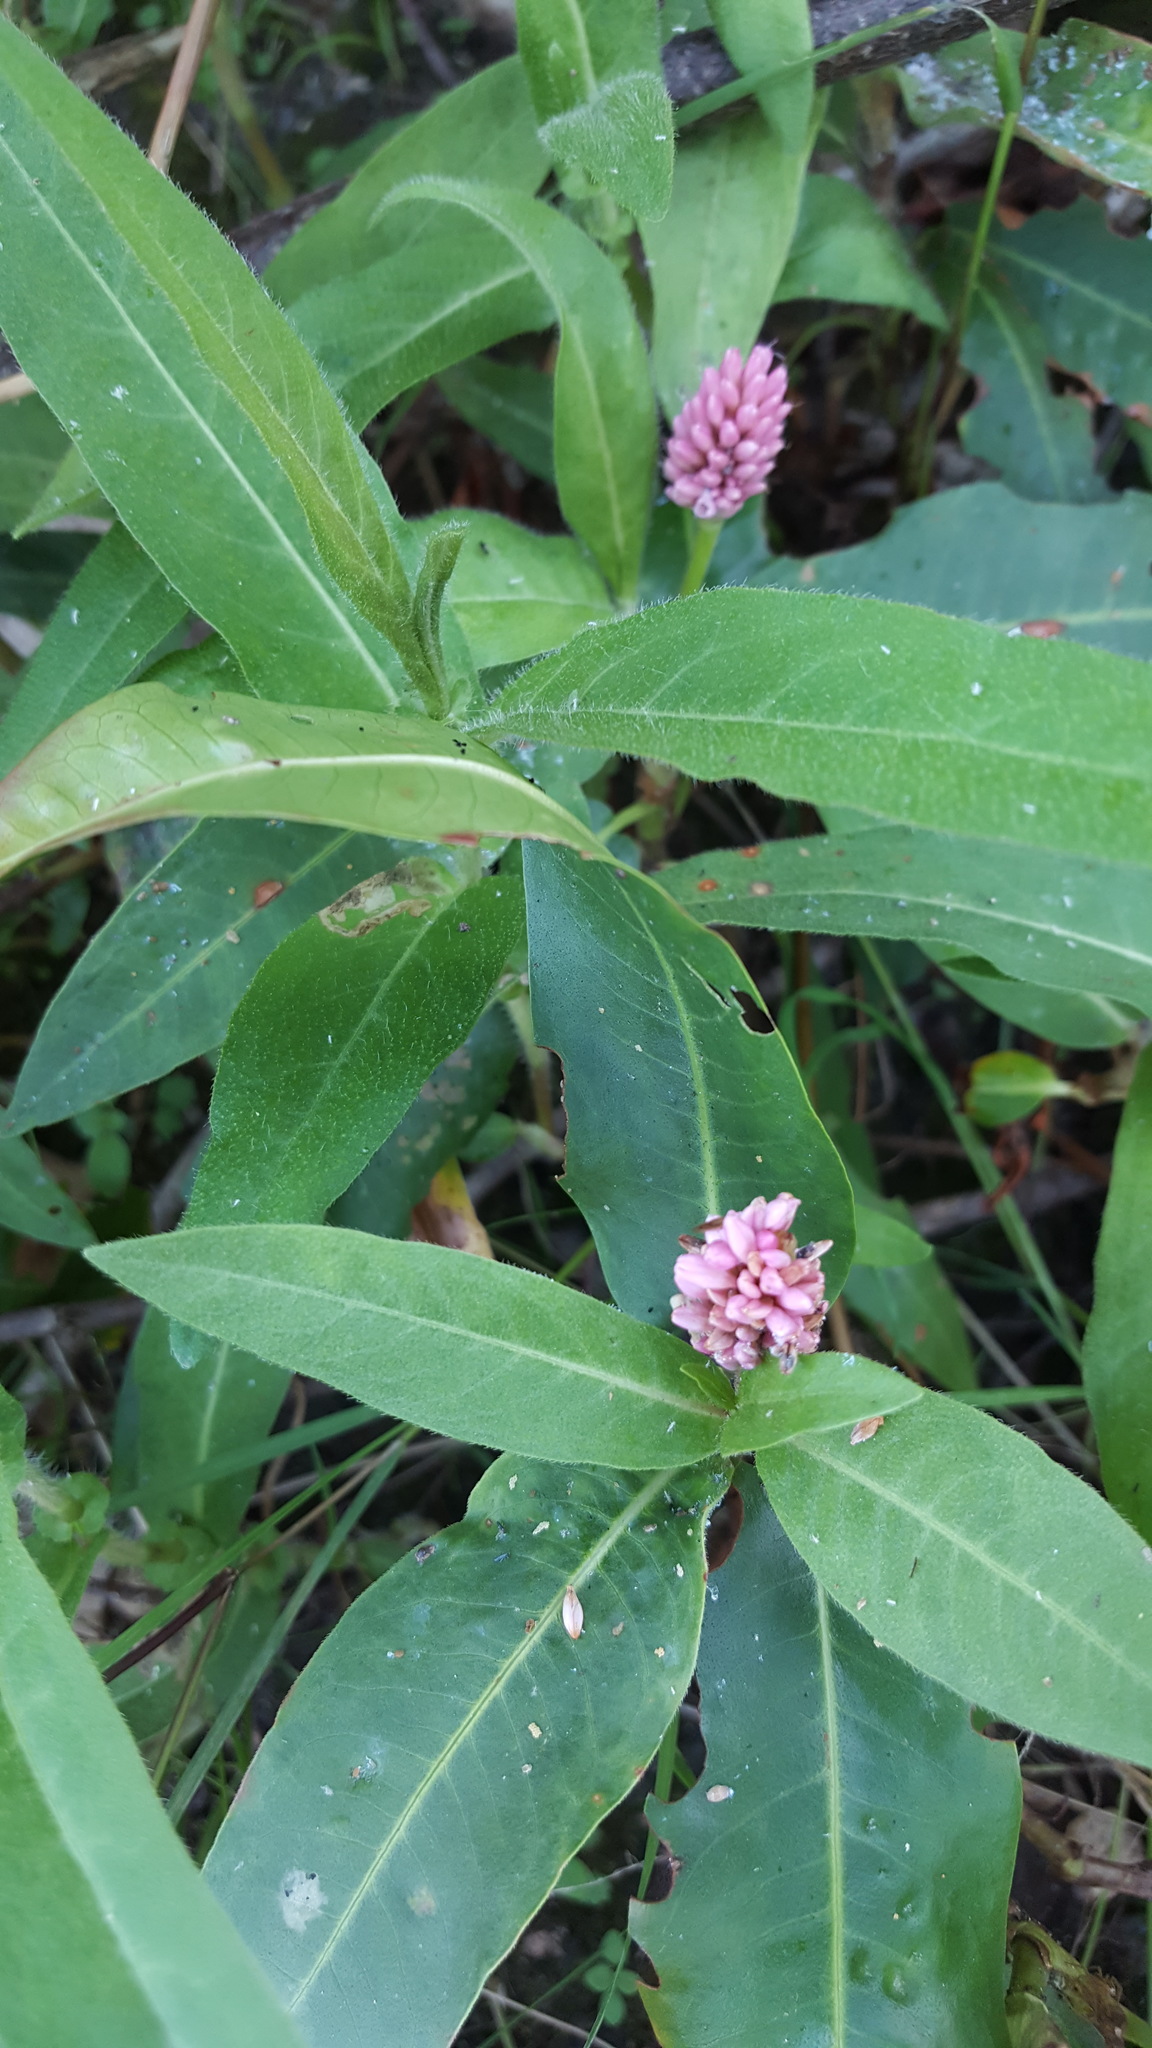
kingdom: Plantae
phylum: Tracheophyta
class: Magnoliopsida
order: Caryophyllales
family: Polygonaceae
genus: Persicaria
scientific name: Persicaria amphibia
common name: Amphibious bistort
